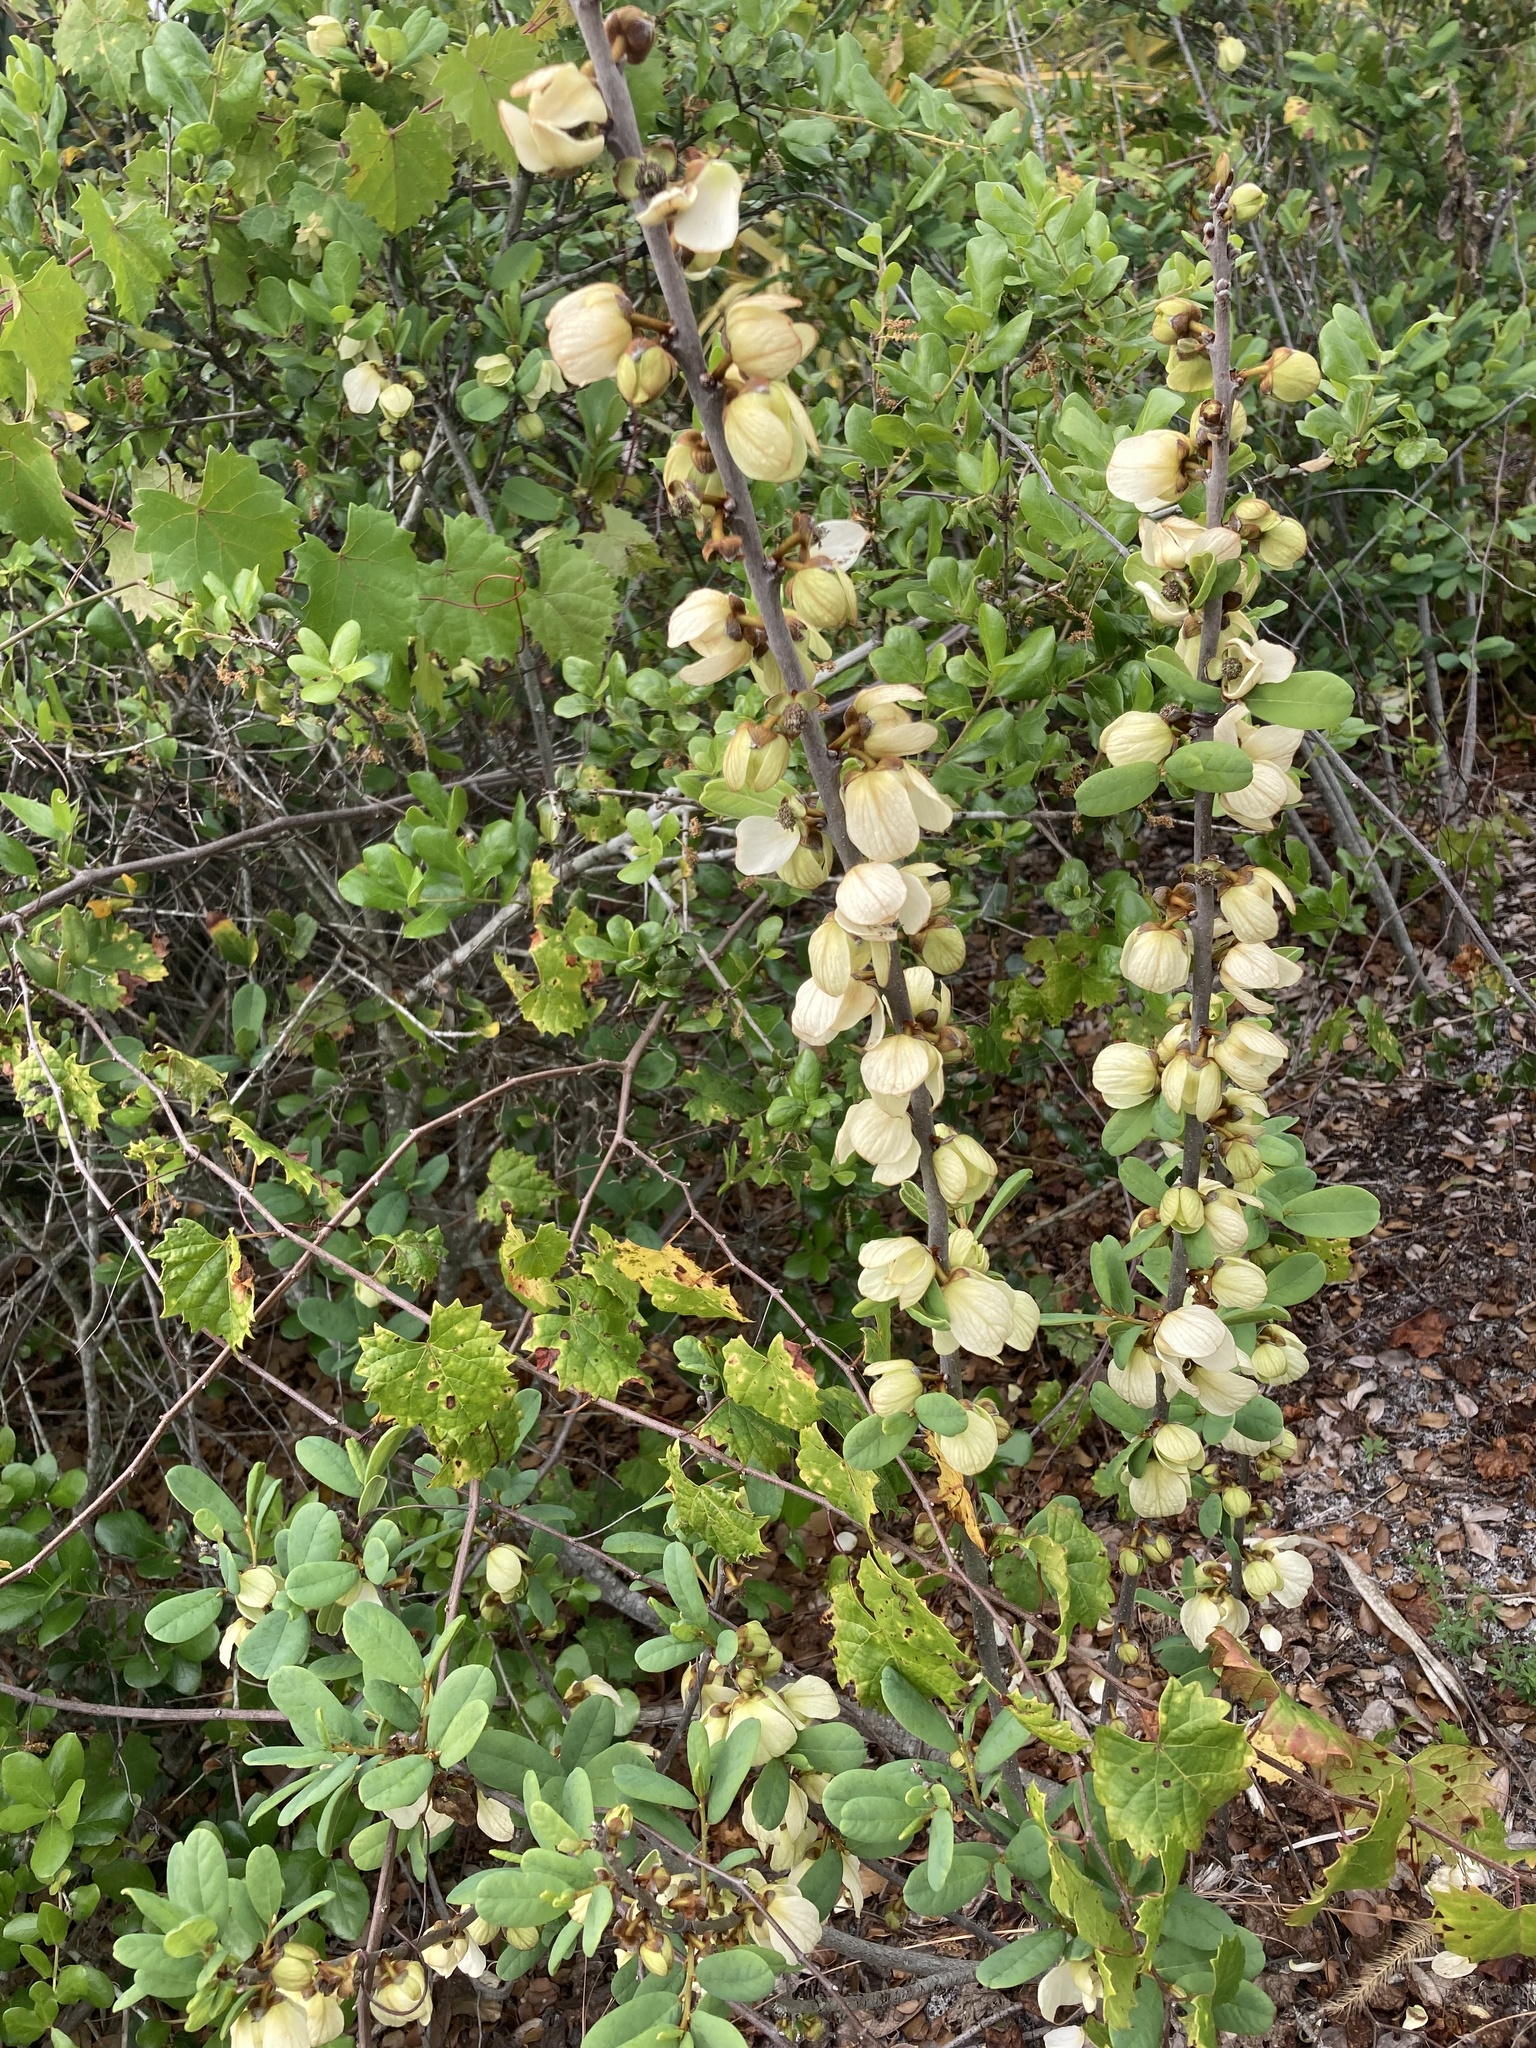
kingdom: Plantae
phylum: Tracheophyta
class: Magnoliopsida
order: Magnoliales
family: Annonaceae
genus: Asimina
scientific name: Asimina reticulata
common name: Flag pawpaw
